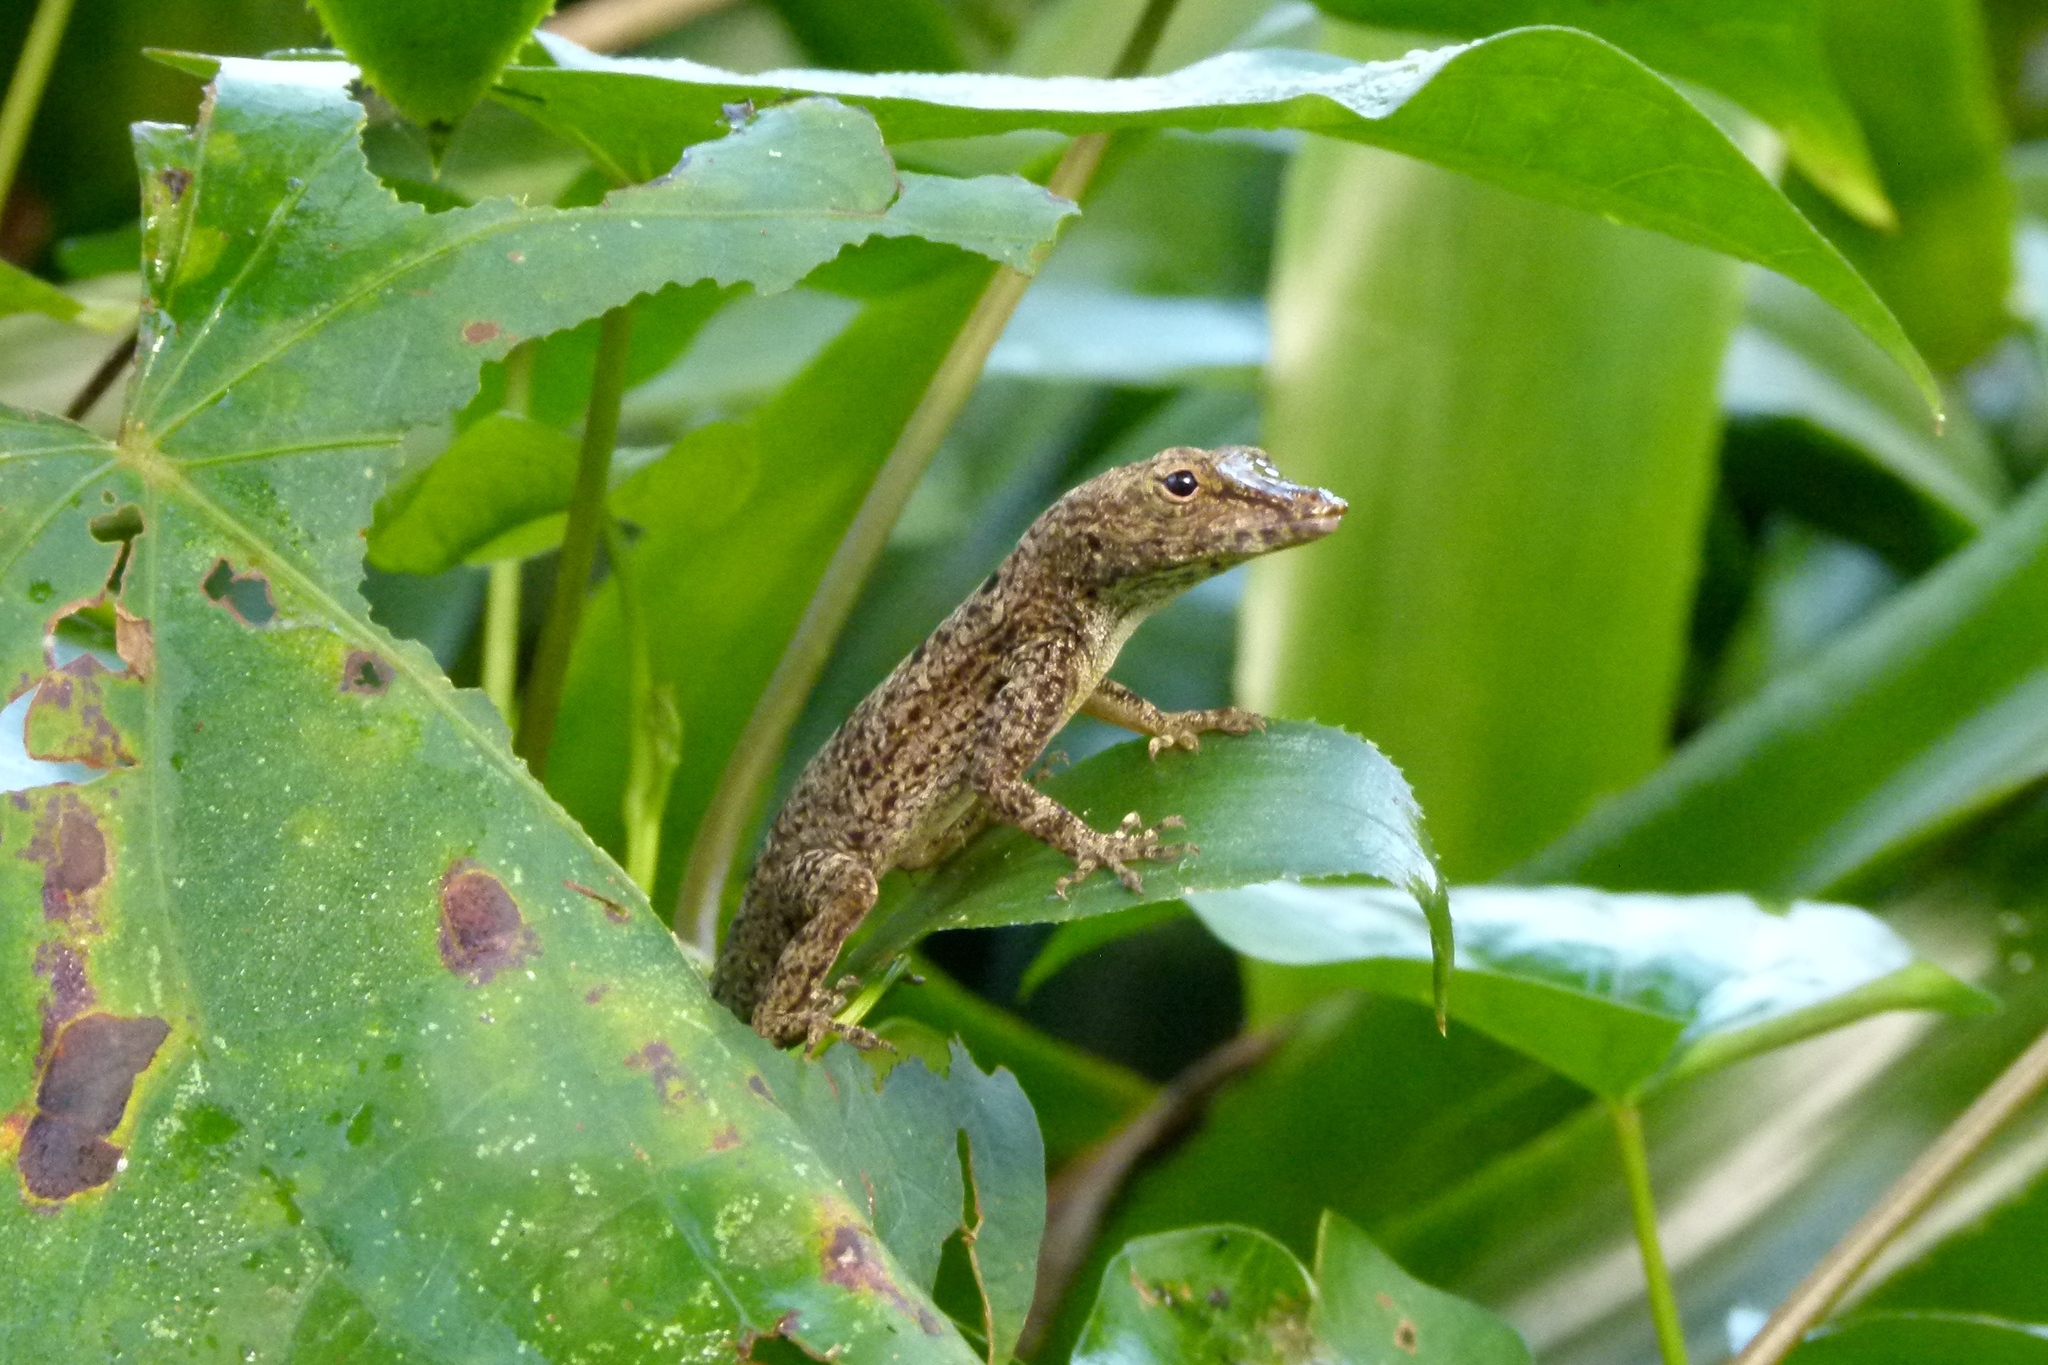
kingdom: Animalia
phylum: Chordata
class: Squamata
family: Dactyloidae
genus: Anolis
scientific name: Anolis stratulus
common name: Banded anole
